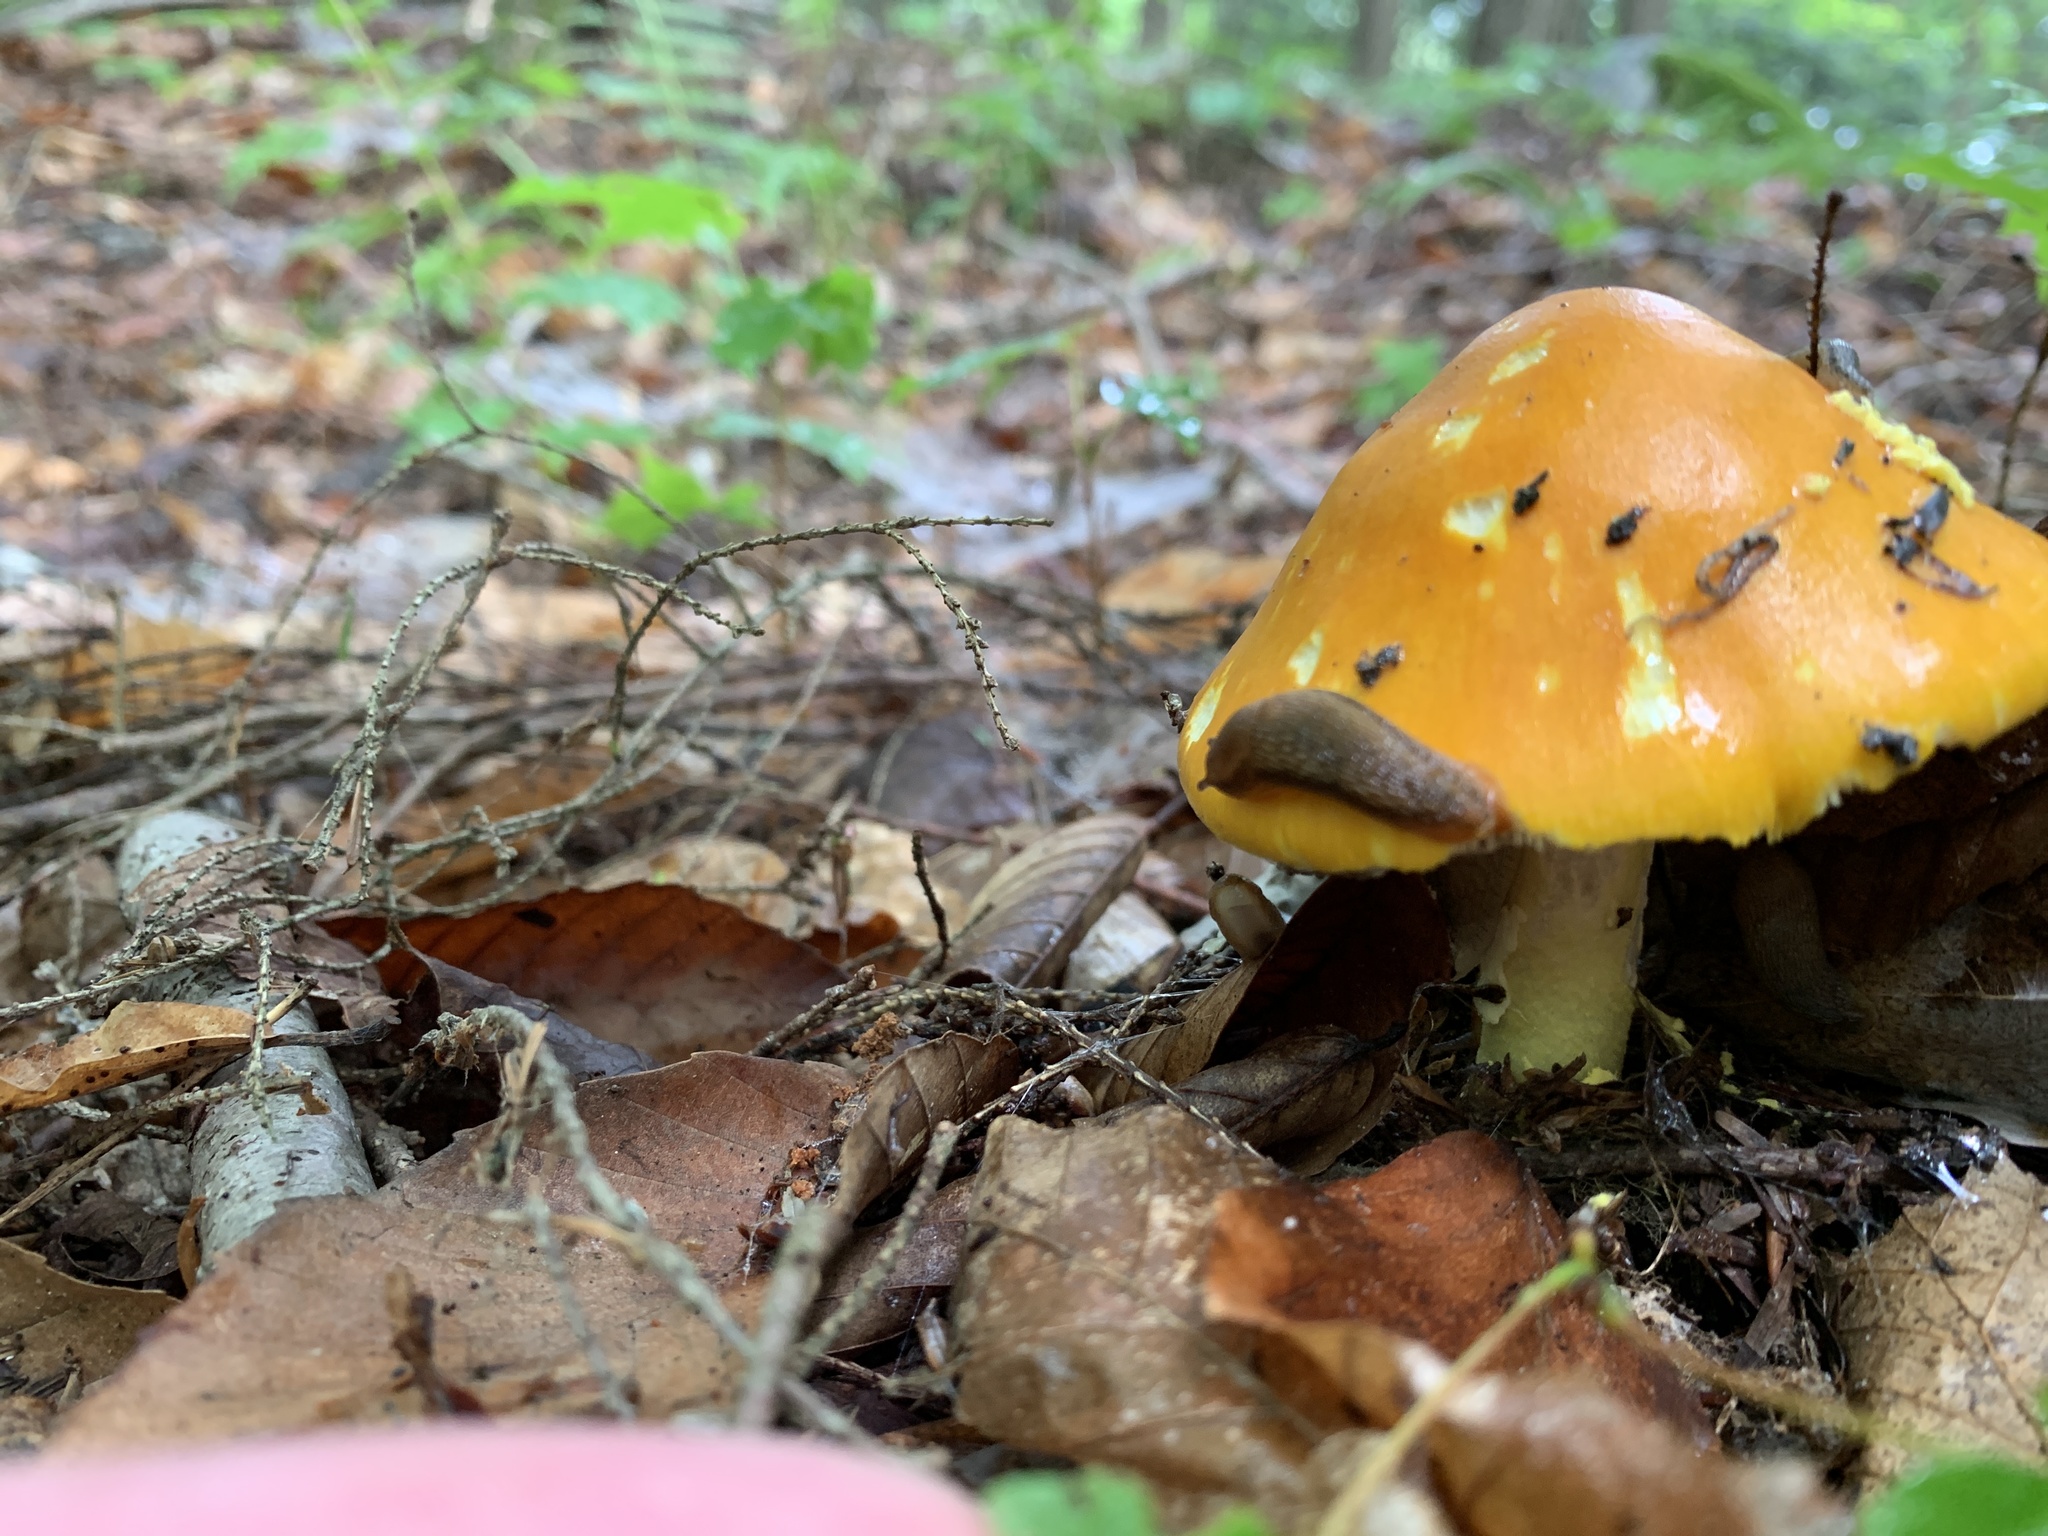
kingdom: Fungi
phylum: Basidiomycota
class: Agaricomycetes
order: Agaricales
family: Amanitaceae
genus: Amanita
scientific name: Amanita flavoconia
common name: Yellow patches
